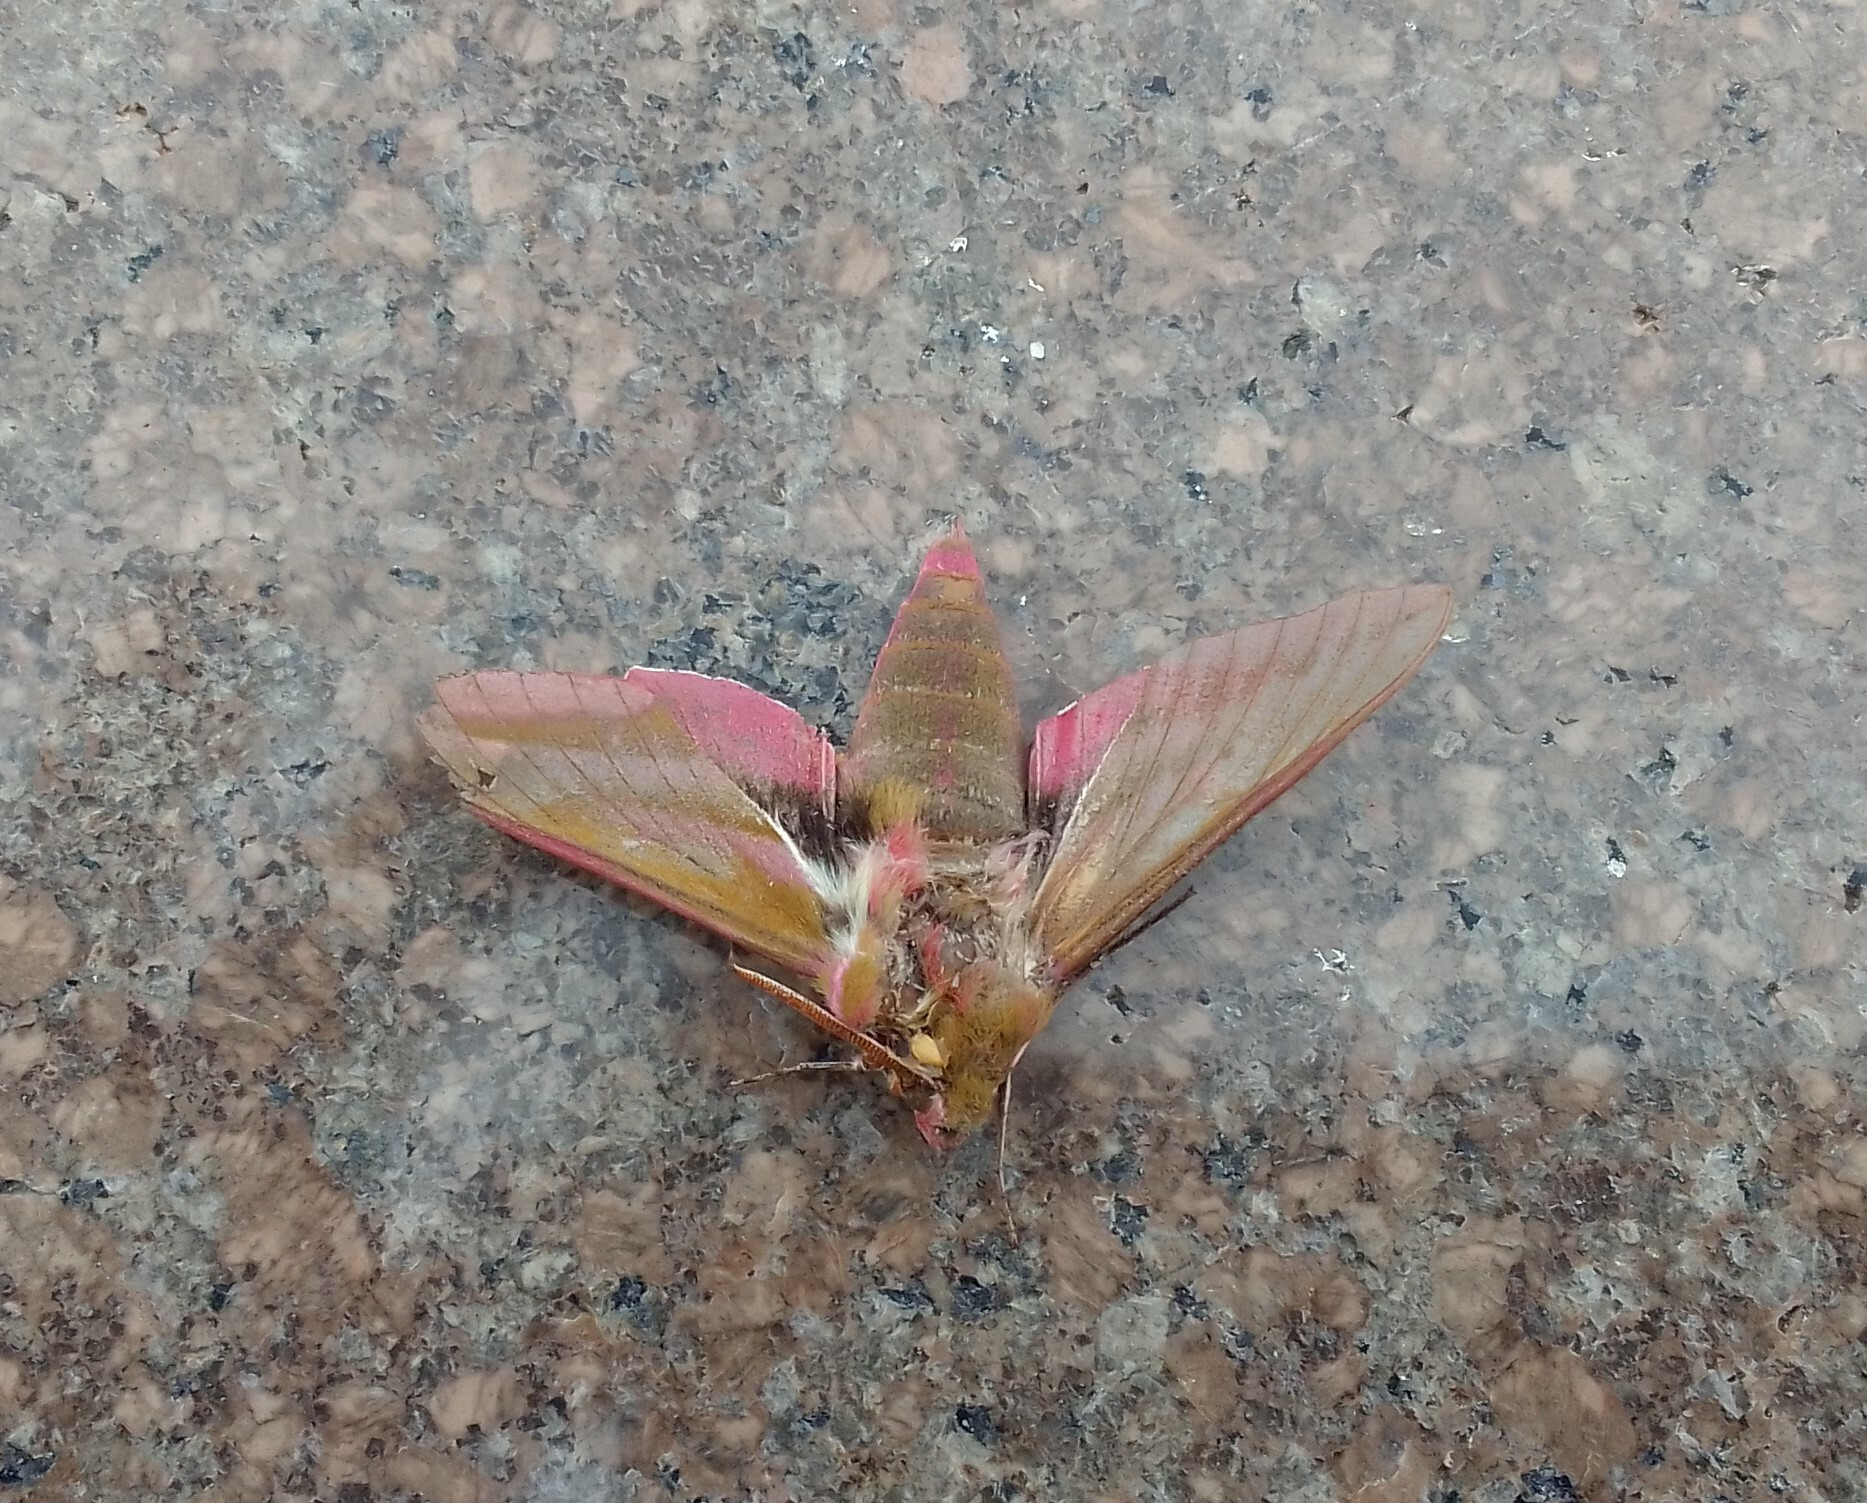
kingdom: Animalia
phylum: Arthropoda
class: Insecta
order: Lepidoptera
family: Sphingidae
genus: Deilephila
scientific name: Deilephila elpenor
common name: Elephant hawk-moth
